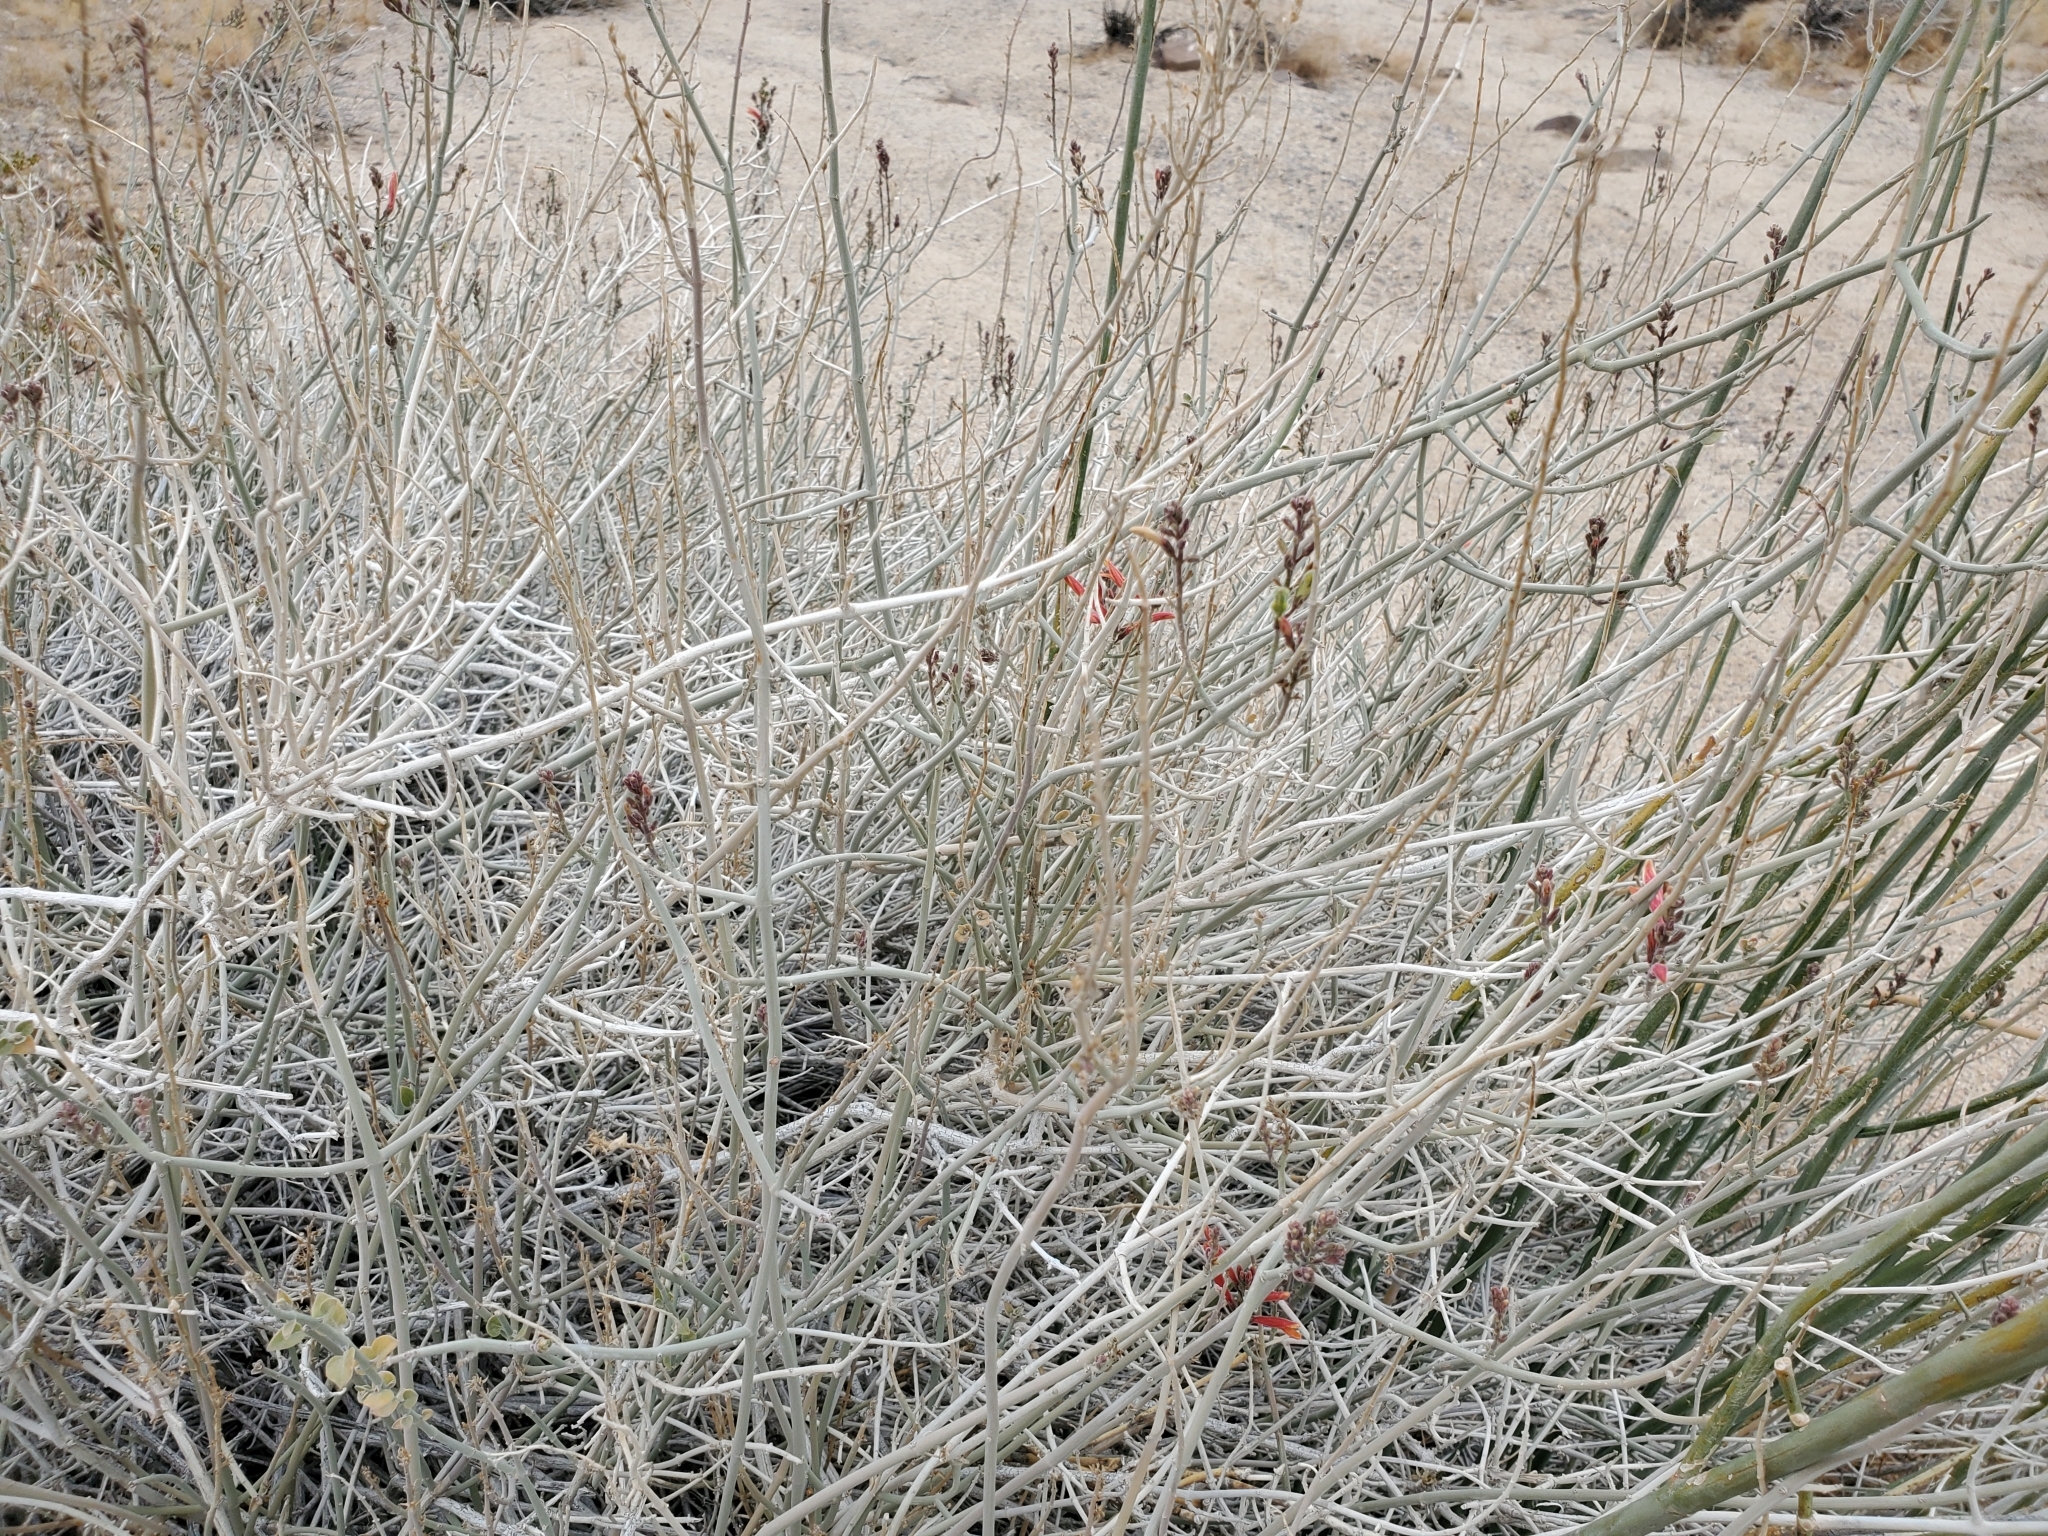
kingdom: Plantae
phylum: Tracheophyta
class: Magnoliopsida
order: Lamiales
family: Acanthaceae
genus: Justicia
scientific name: Justicia californica
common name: Chuparosa-honeysuckle
